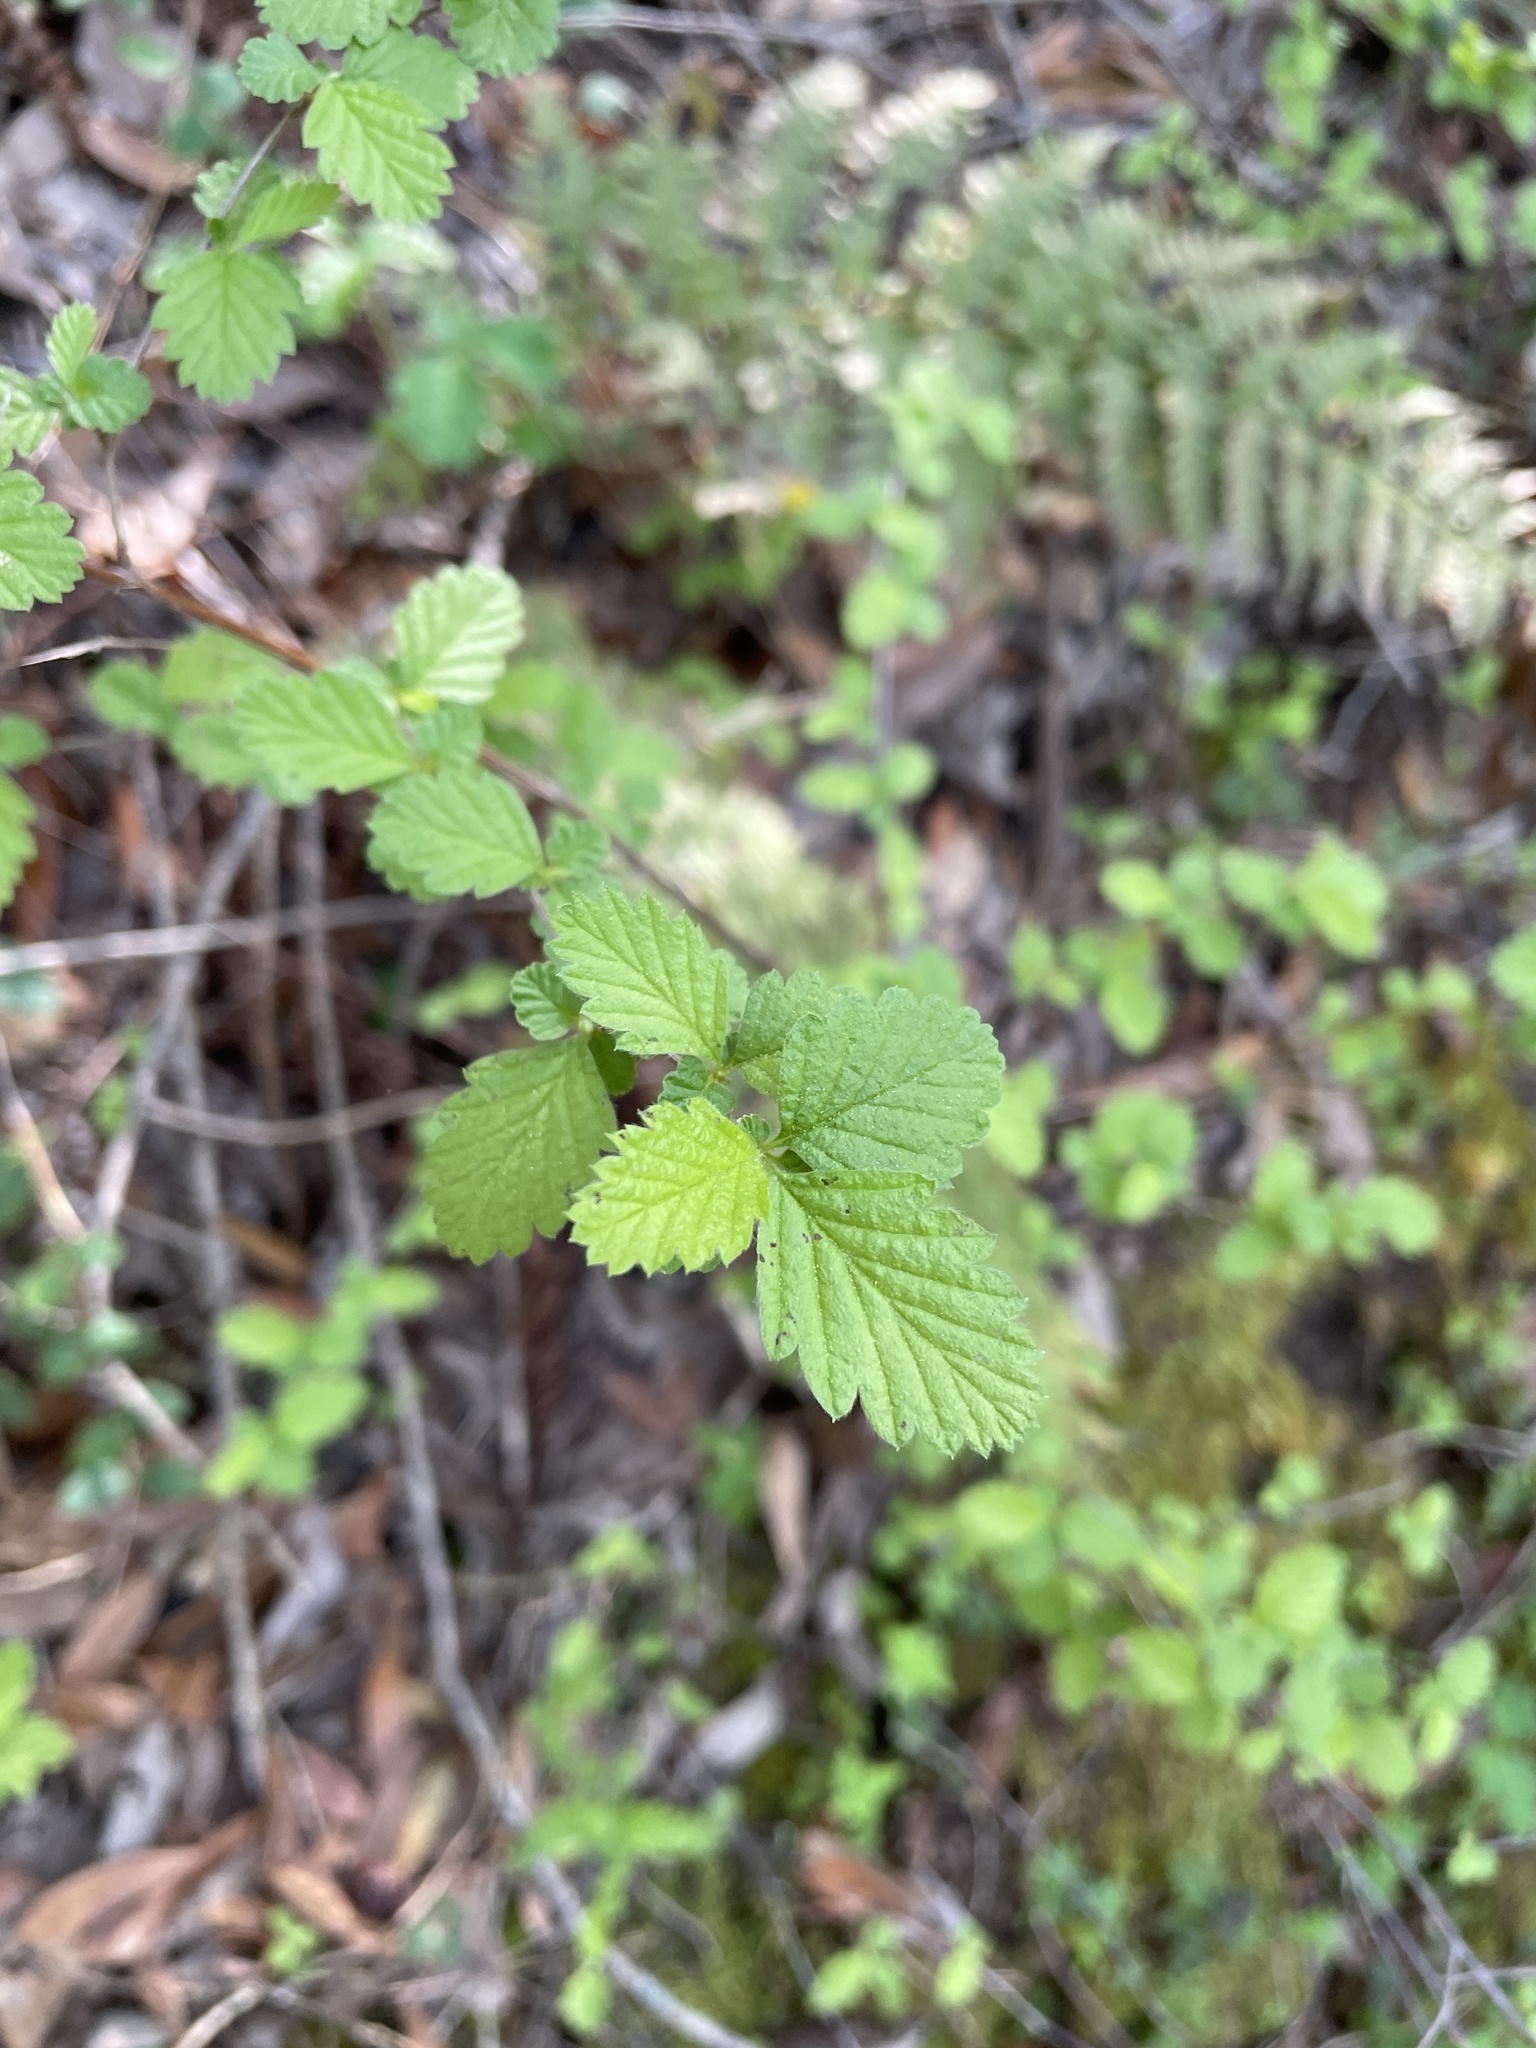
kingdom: Plantae
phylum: Tracheophyta
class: Magnoliopsida
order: Rosales
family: Rosaceae
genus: Holodiscus
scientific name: Holodiscus discolor
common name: Oceanspray
